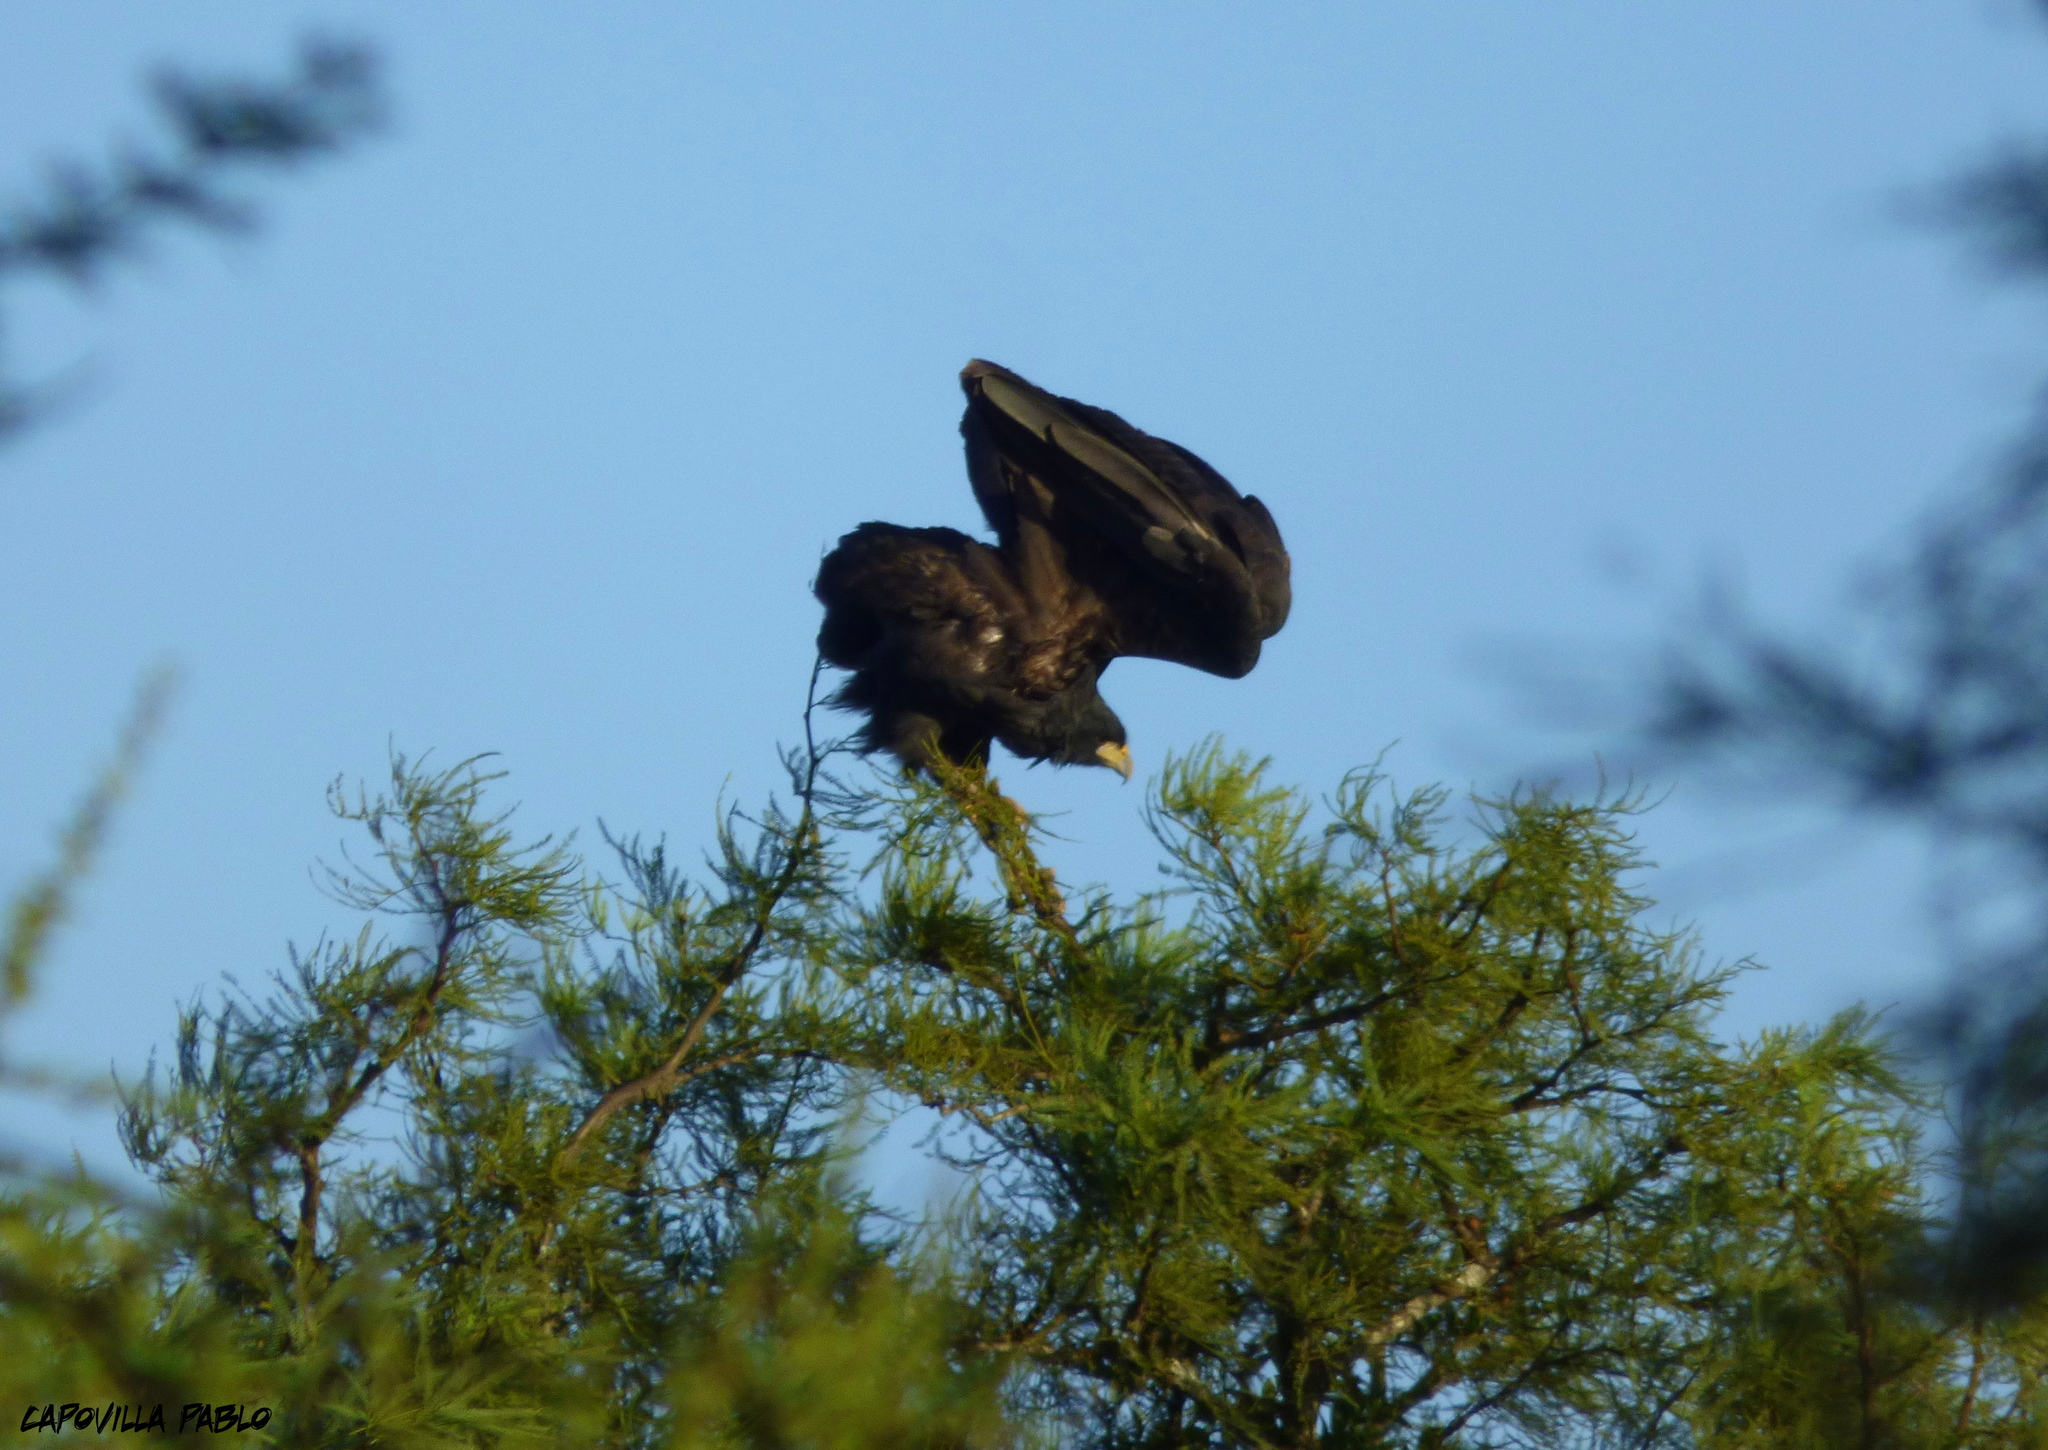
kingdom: Animalia
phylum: Chordata
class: Aves
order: Accipitriformes
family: Accipitridae
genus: Buteogallus
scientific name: Buteogallus urubitinga
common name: Great black hawk
